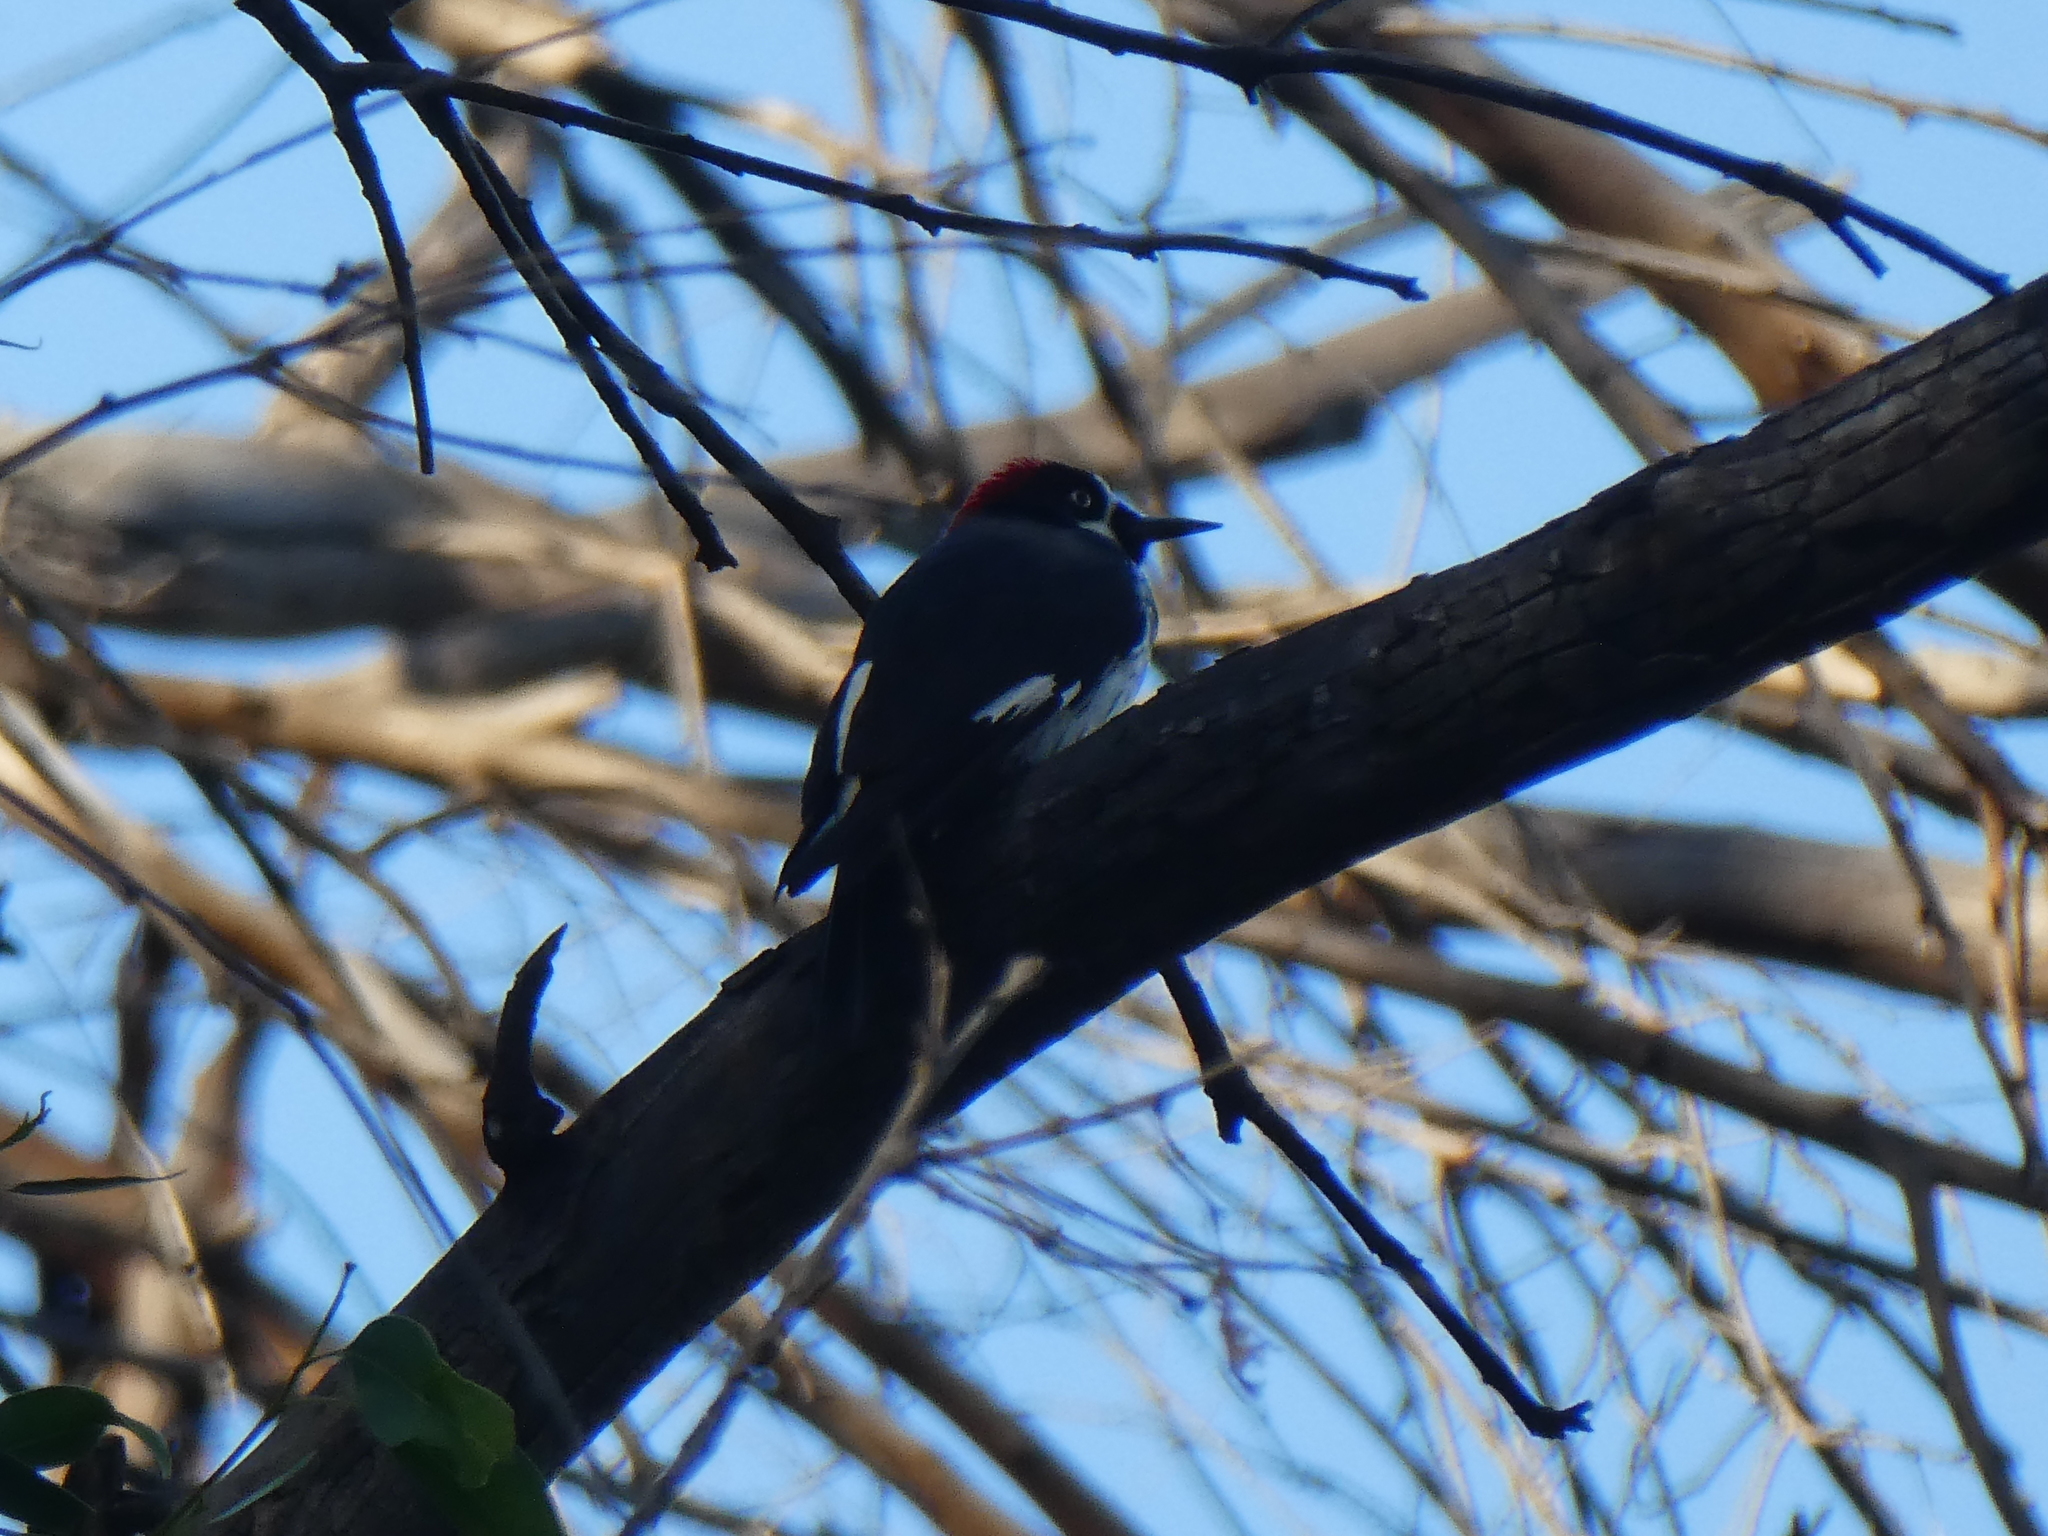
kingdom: Animalia
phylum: Chordata
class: Aves
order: Piciformes
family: Picidae
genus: Melanerpes
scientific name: Melanerpes formicivorus
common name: Acorn woodpecker
